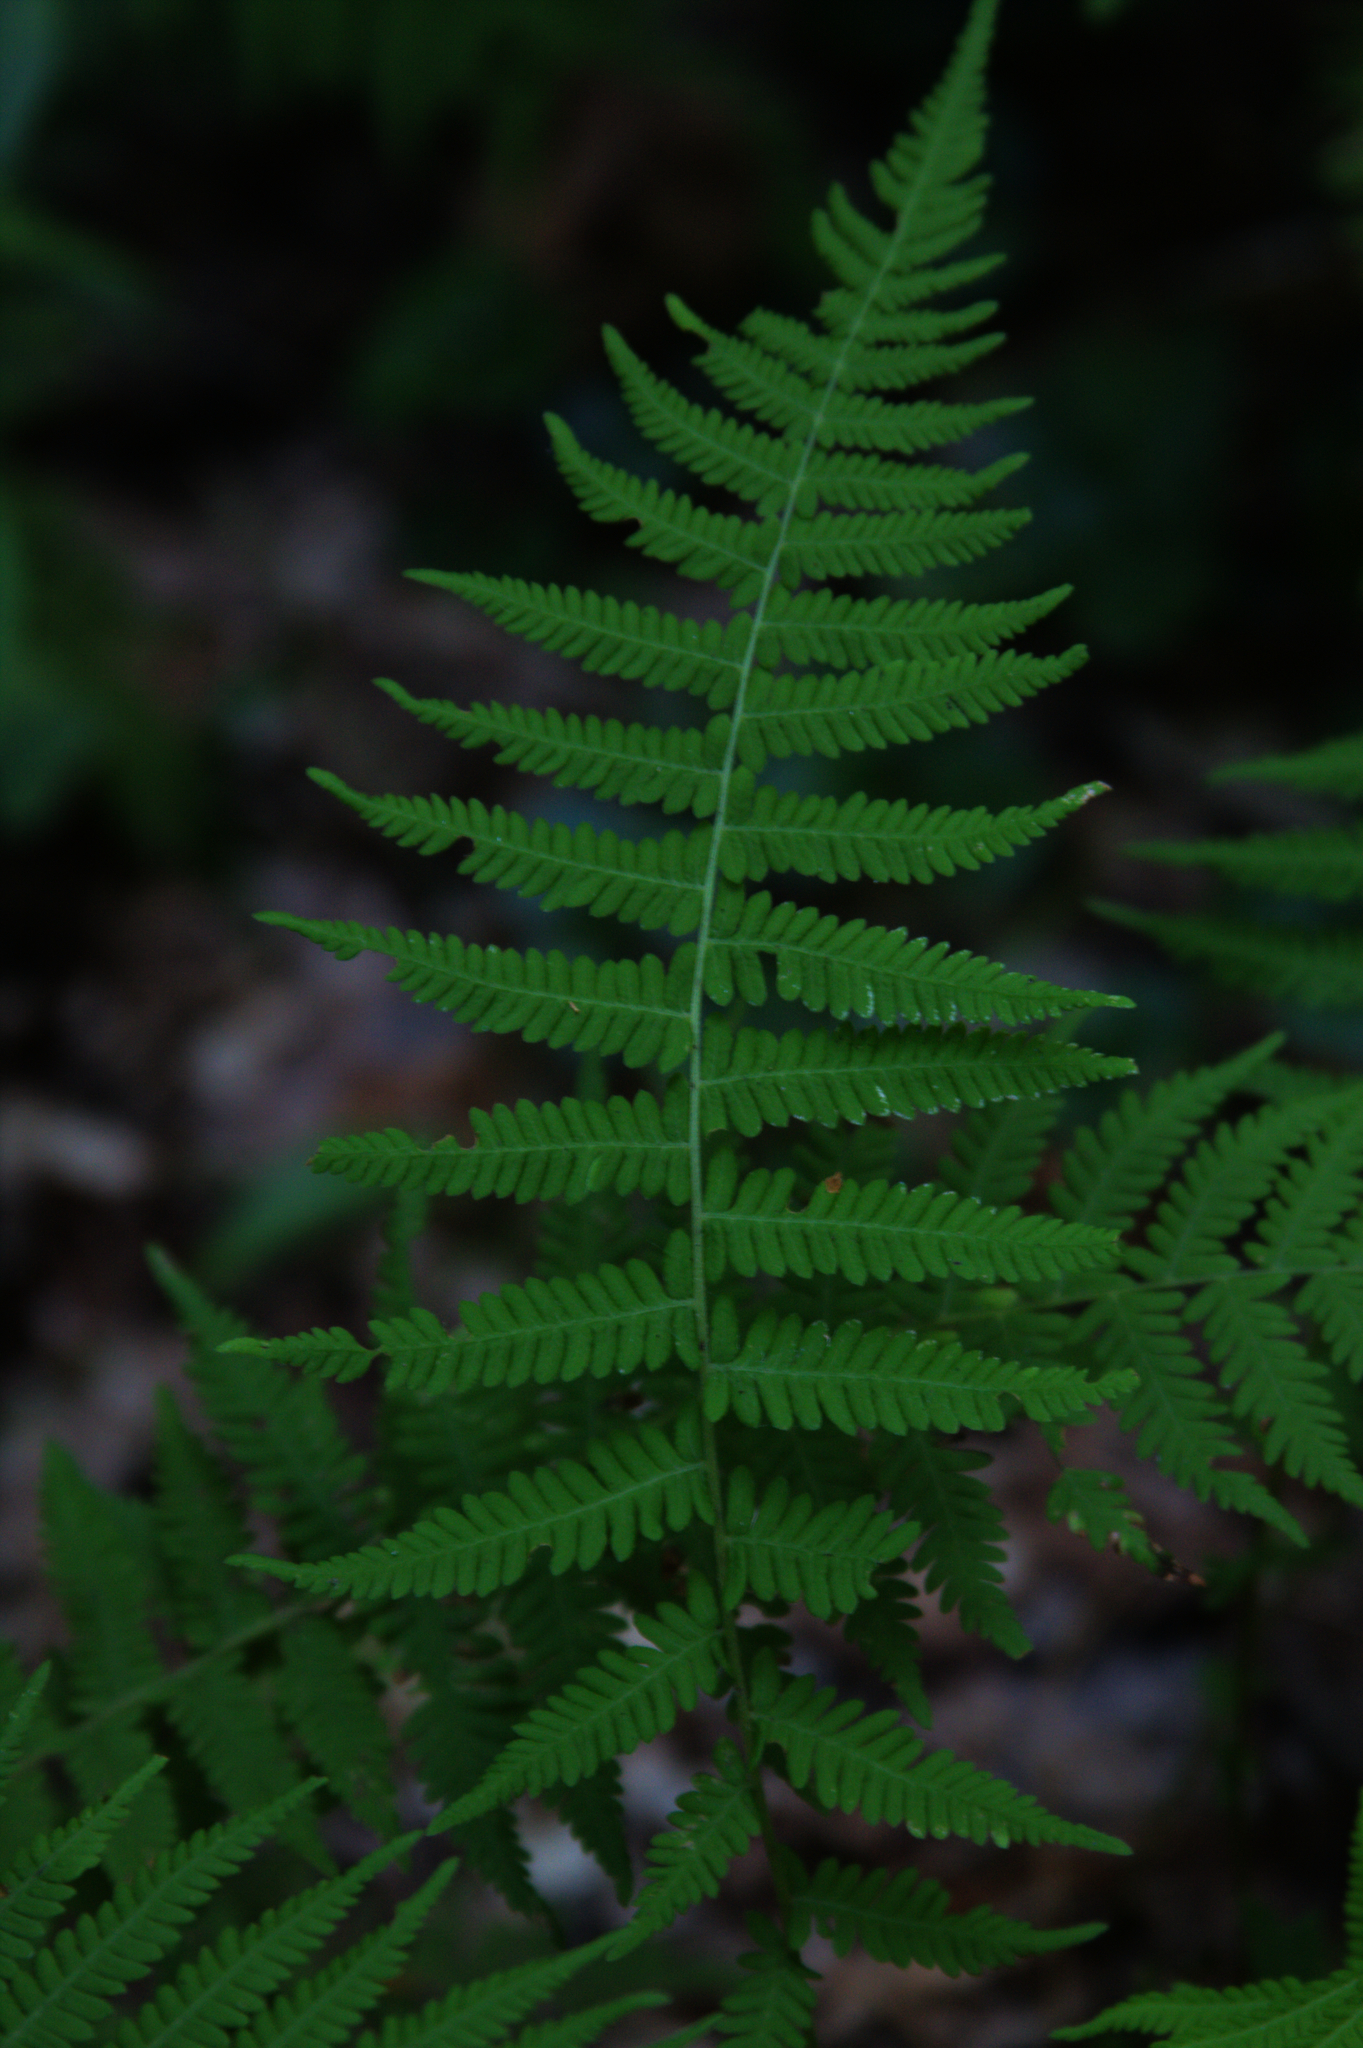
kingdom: Plantae
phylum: Tracheophyta
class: Polypodiopsida
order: Polypodiales
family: Thelypteridaceae
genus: Amauropelta
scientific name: Amauropelta noveboracensis
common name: New york fern
